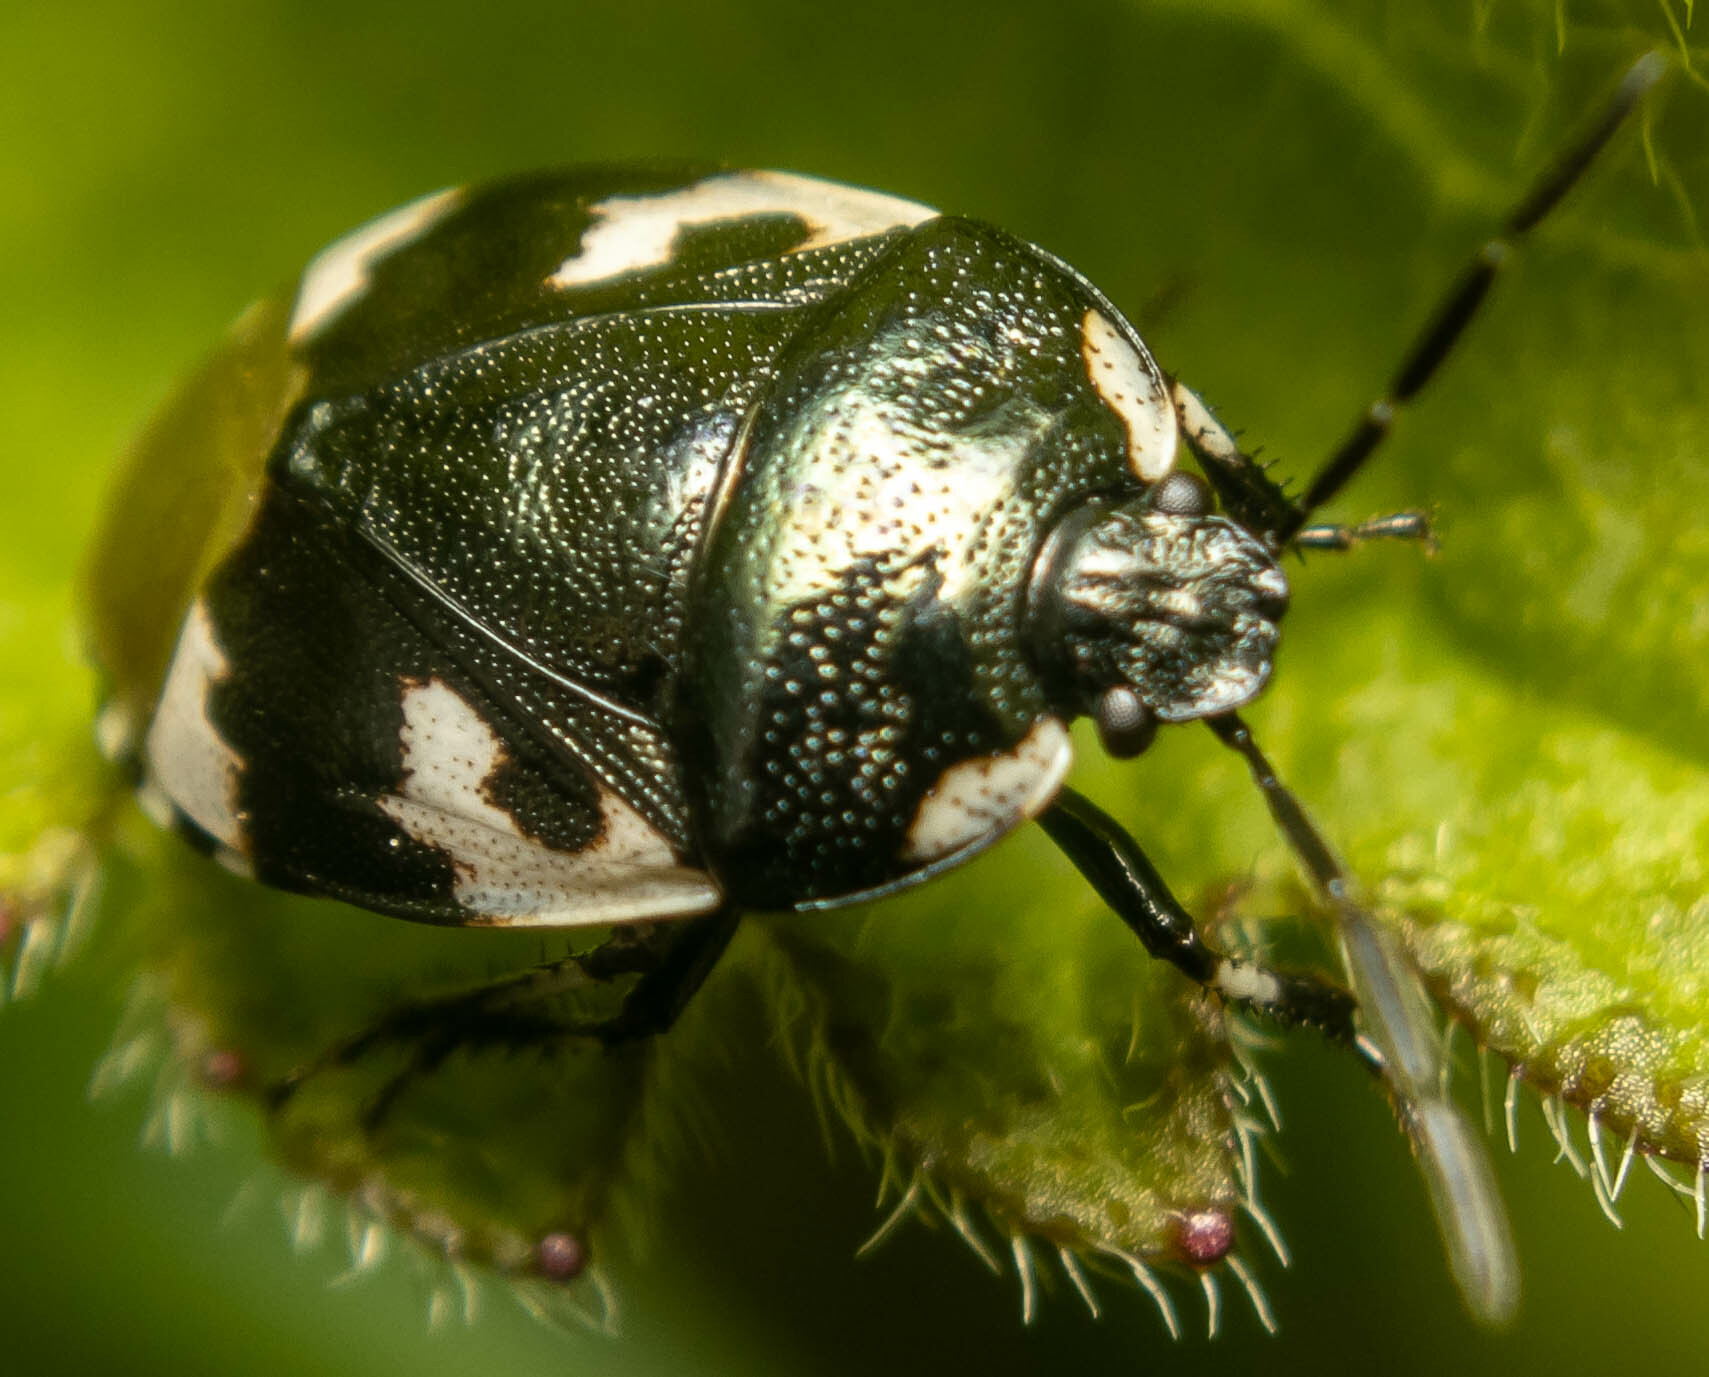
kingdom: Animalia
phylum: Arthropoda
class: Insecta
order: Hemiptera
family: Cydnidae
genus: Tritomegas
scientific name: Tritomegas bicolor
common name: Pied shieldbug
